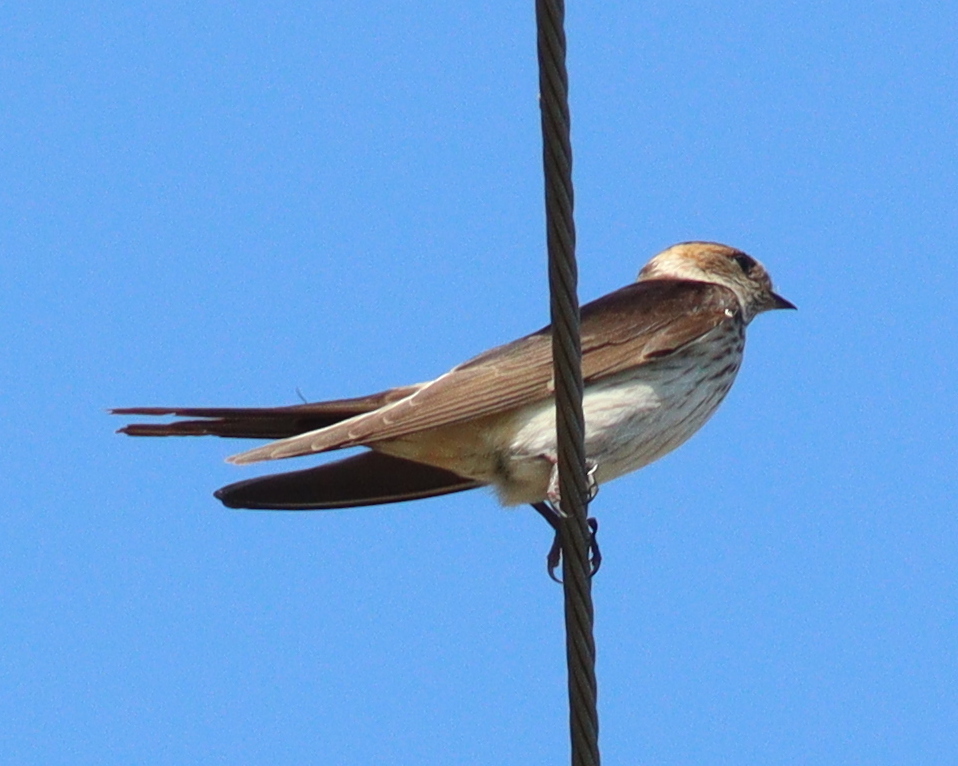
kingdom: Animalia
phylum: Chordata
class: Aves
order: Passeriformes
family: Hirundinidae
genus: Cecropis
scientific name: Cecropis striolata
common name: Striated swallow
